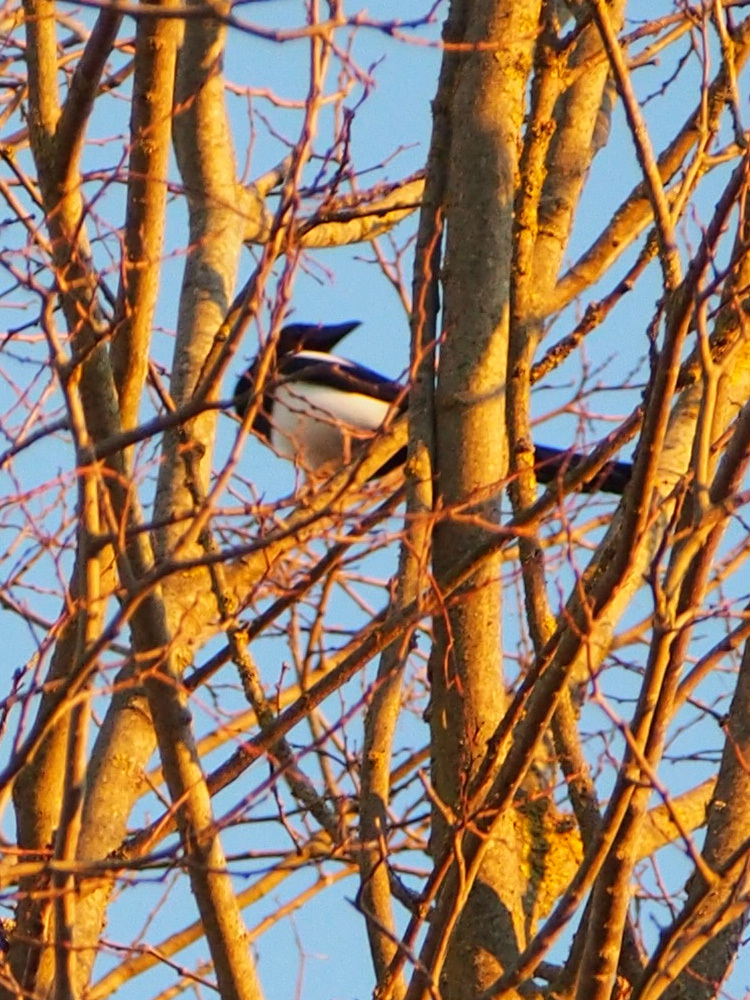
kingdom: Animalia
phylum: Chordata
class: Aves
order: Passeriformes
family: Corvidae
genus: Pica
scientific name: Pica pica
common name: Eurasian magpie
